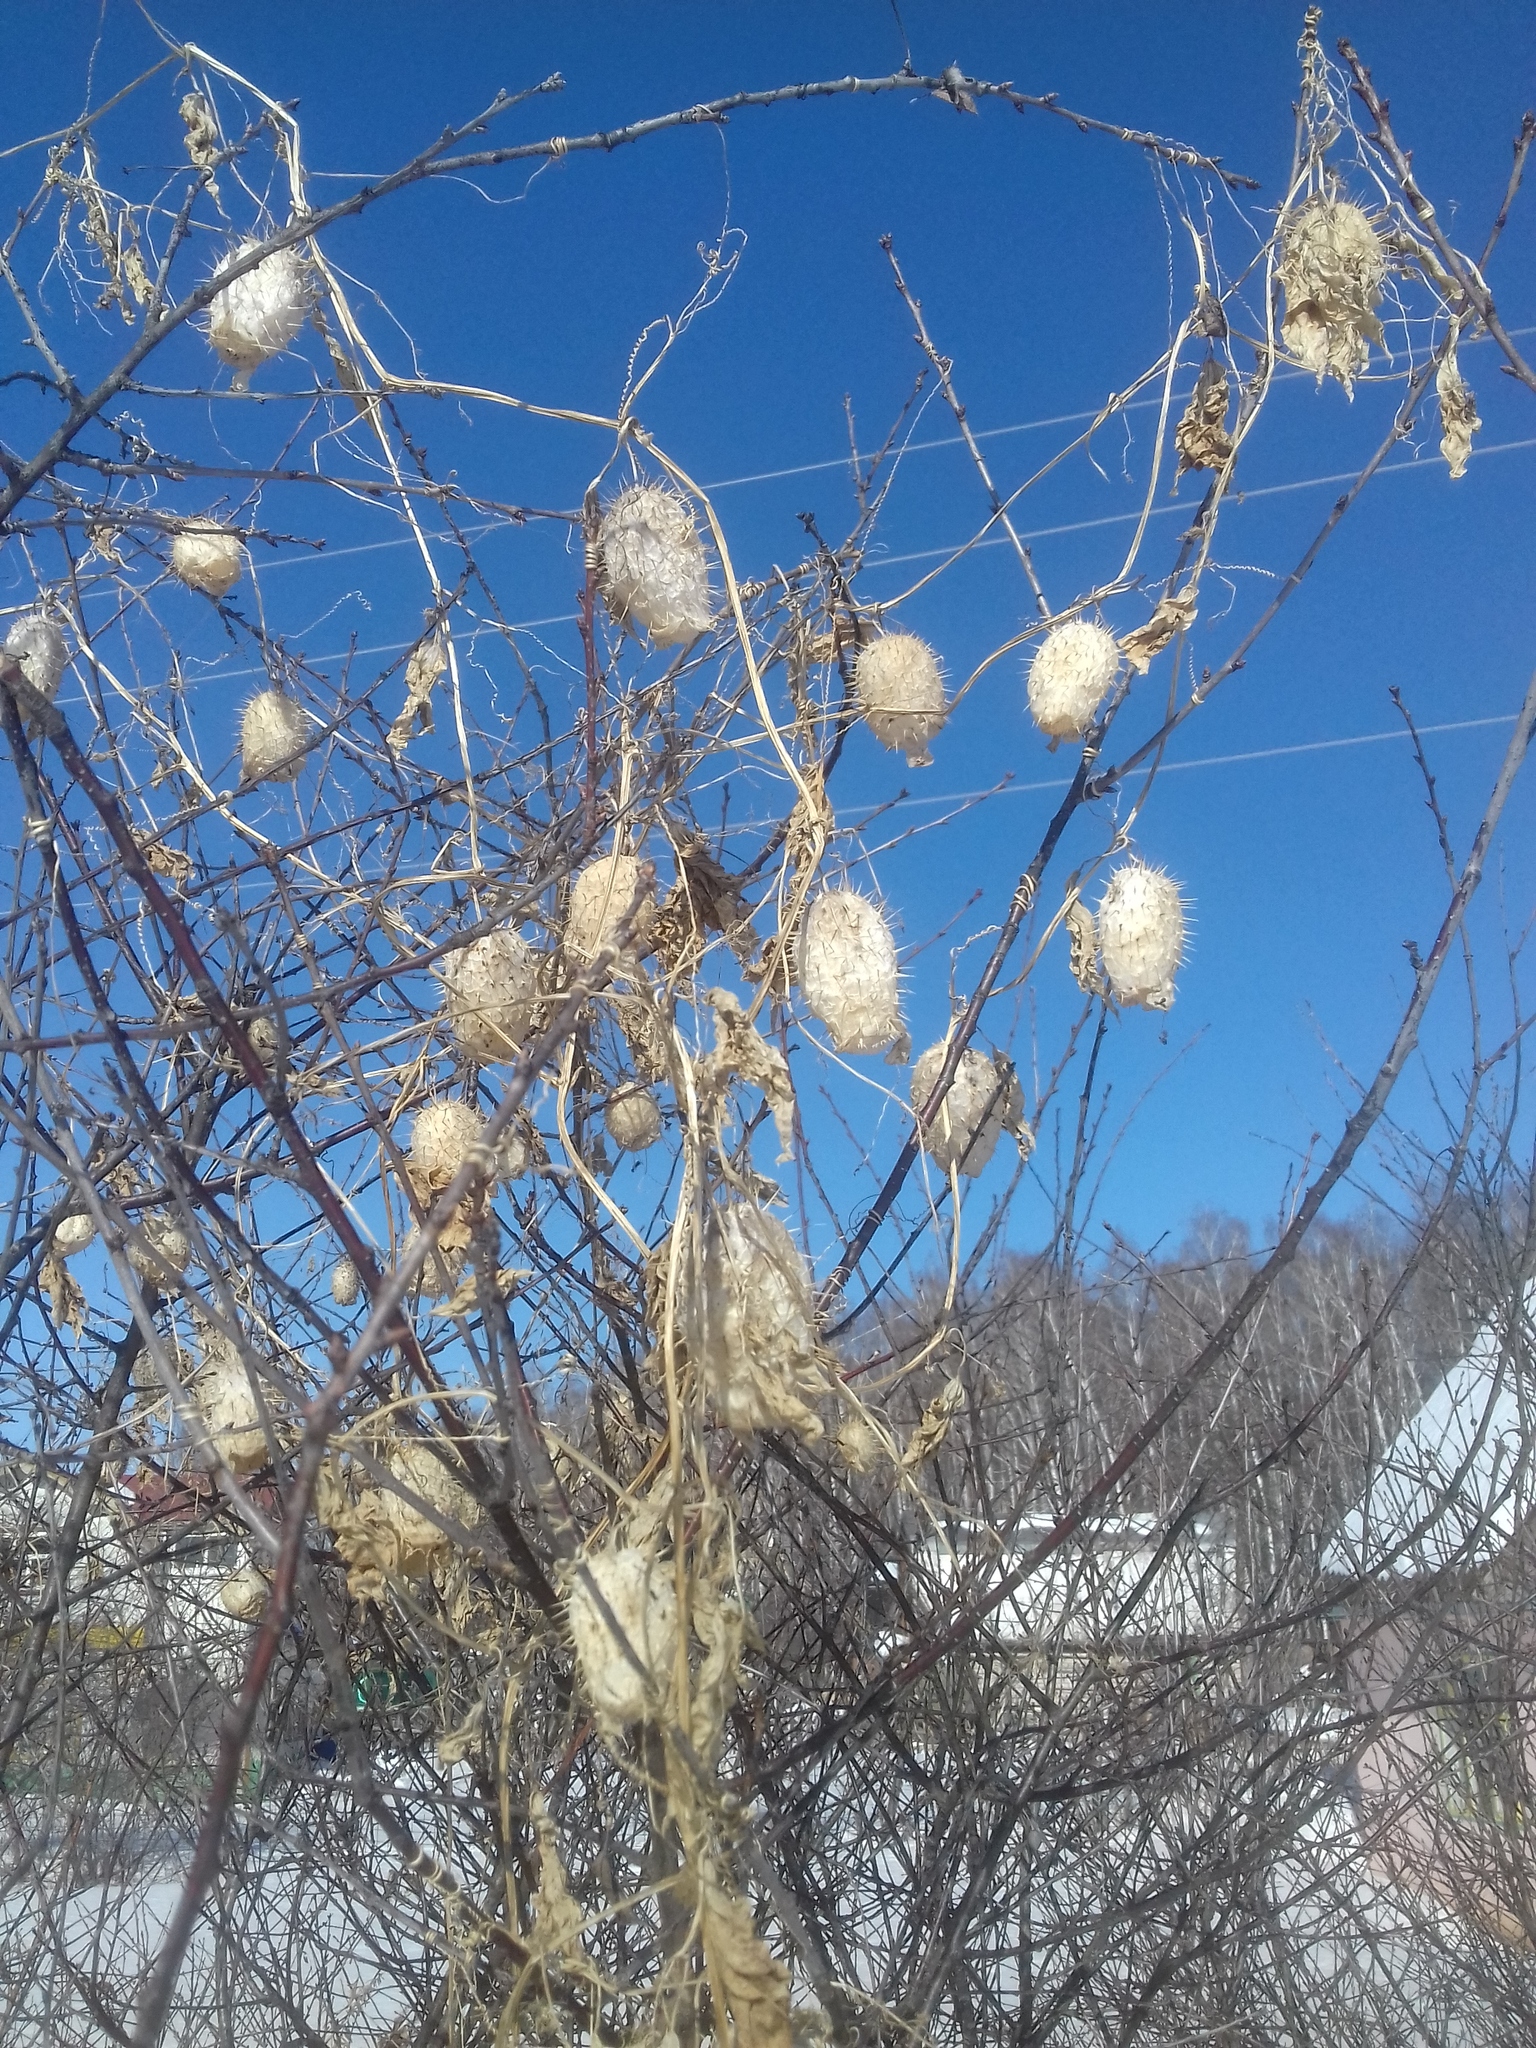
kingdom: Plantae
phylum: Tracheophyta
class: Magnoliopsida
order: Cucurbitales
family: Cucurbitaceae
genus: Echinocystis
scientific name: Echinocystis lobata
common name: Wild cucumber
